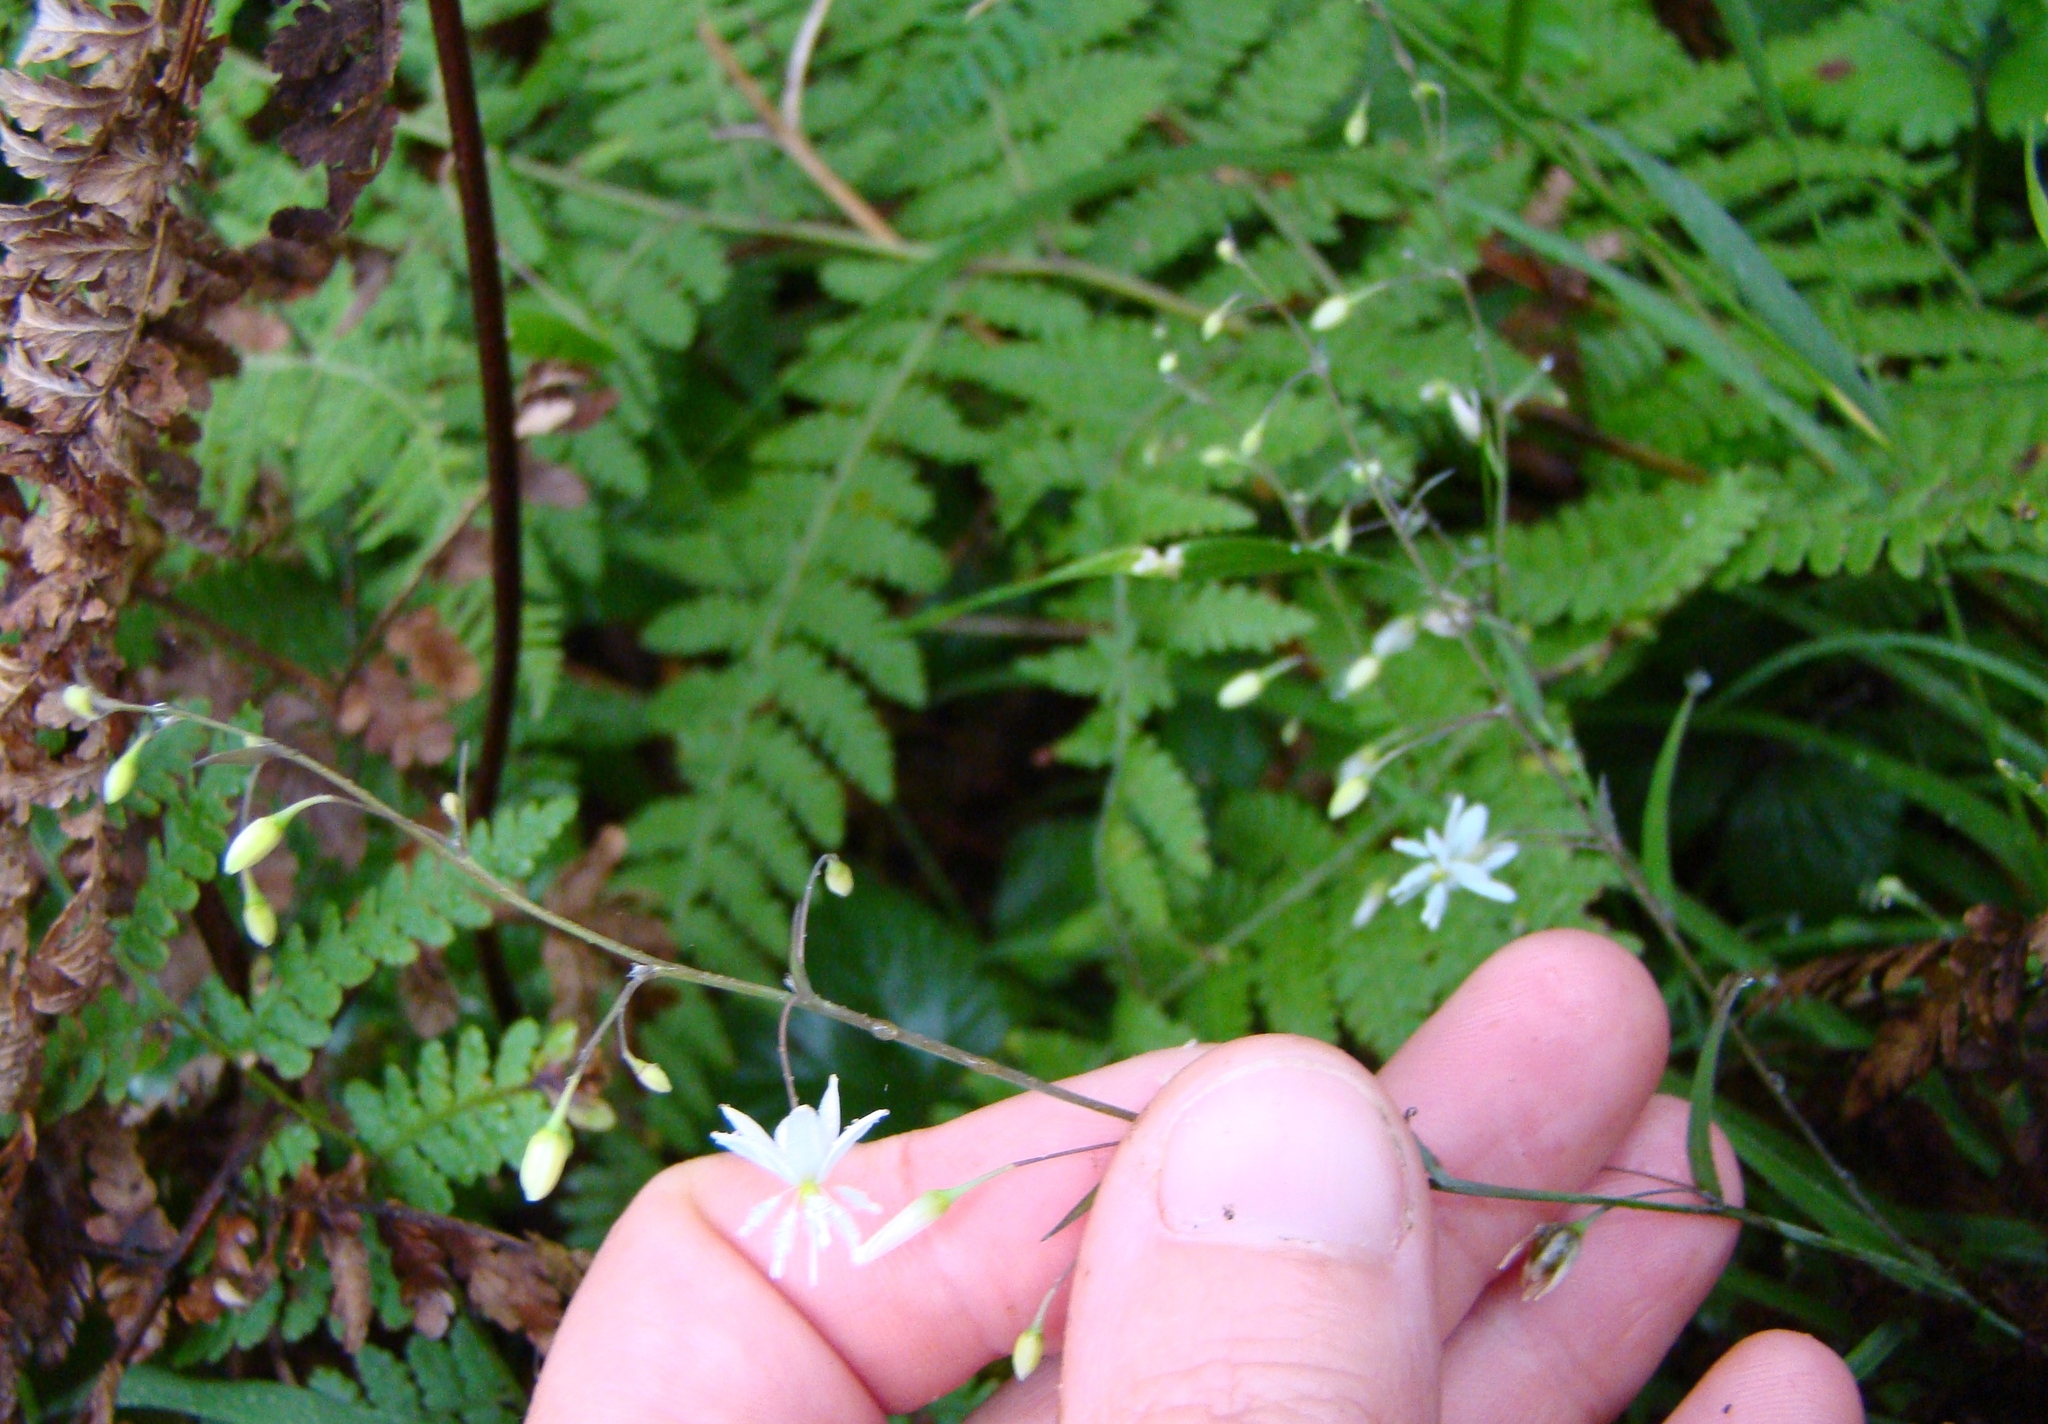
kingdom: Plantae
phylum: Tracheophyta
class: Liliopsida
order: Asparagales
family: Asparagaceae
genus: Arthropodium
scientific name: Arthropodium candidum
